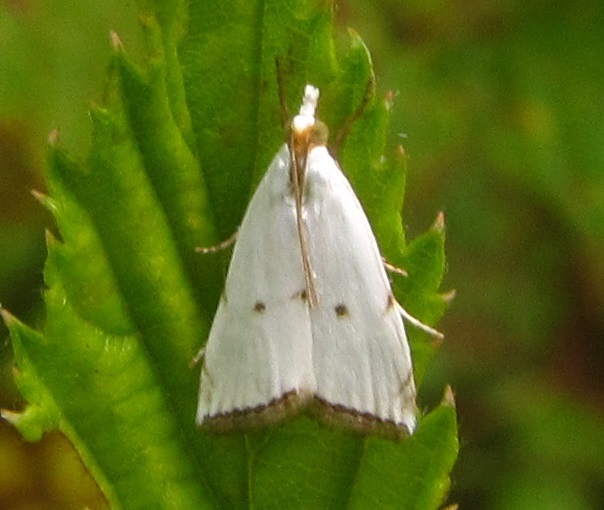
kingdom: Animalia
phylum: Arthropoda
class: Insecta
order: Lepidoptera
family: Crambidae
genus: Argyria
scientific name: Argyria pusillalis
